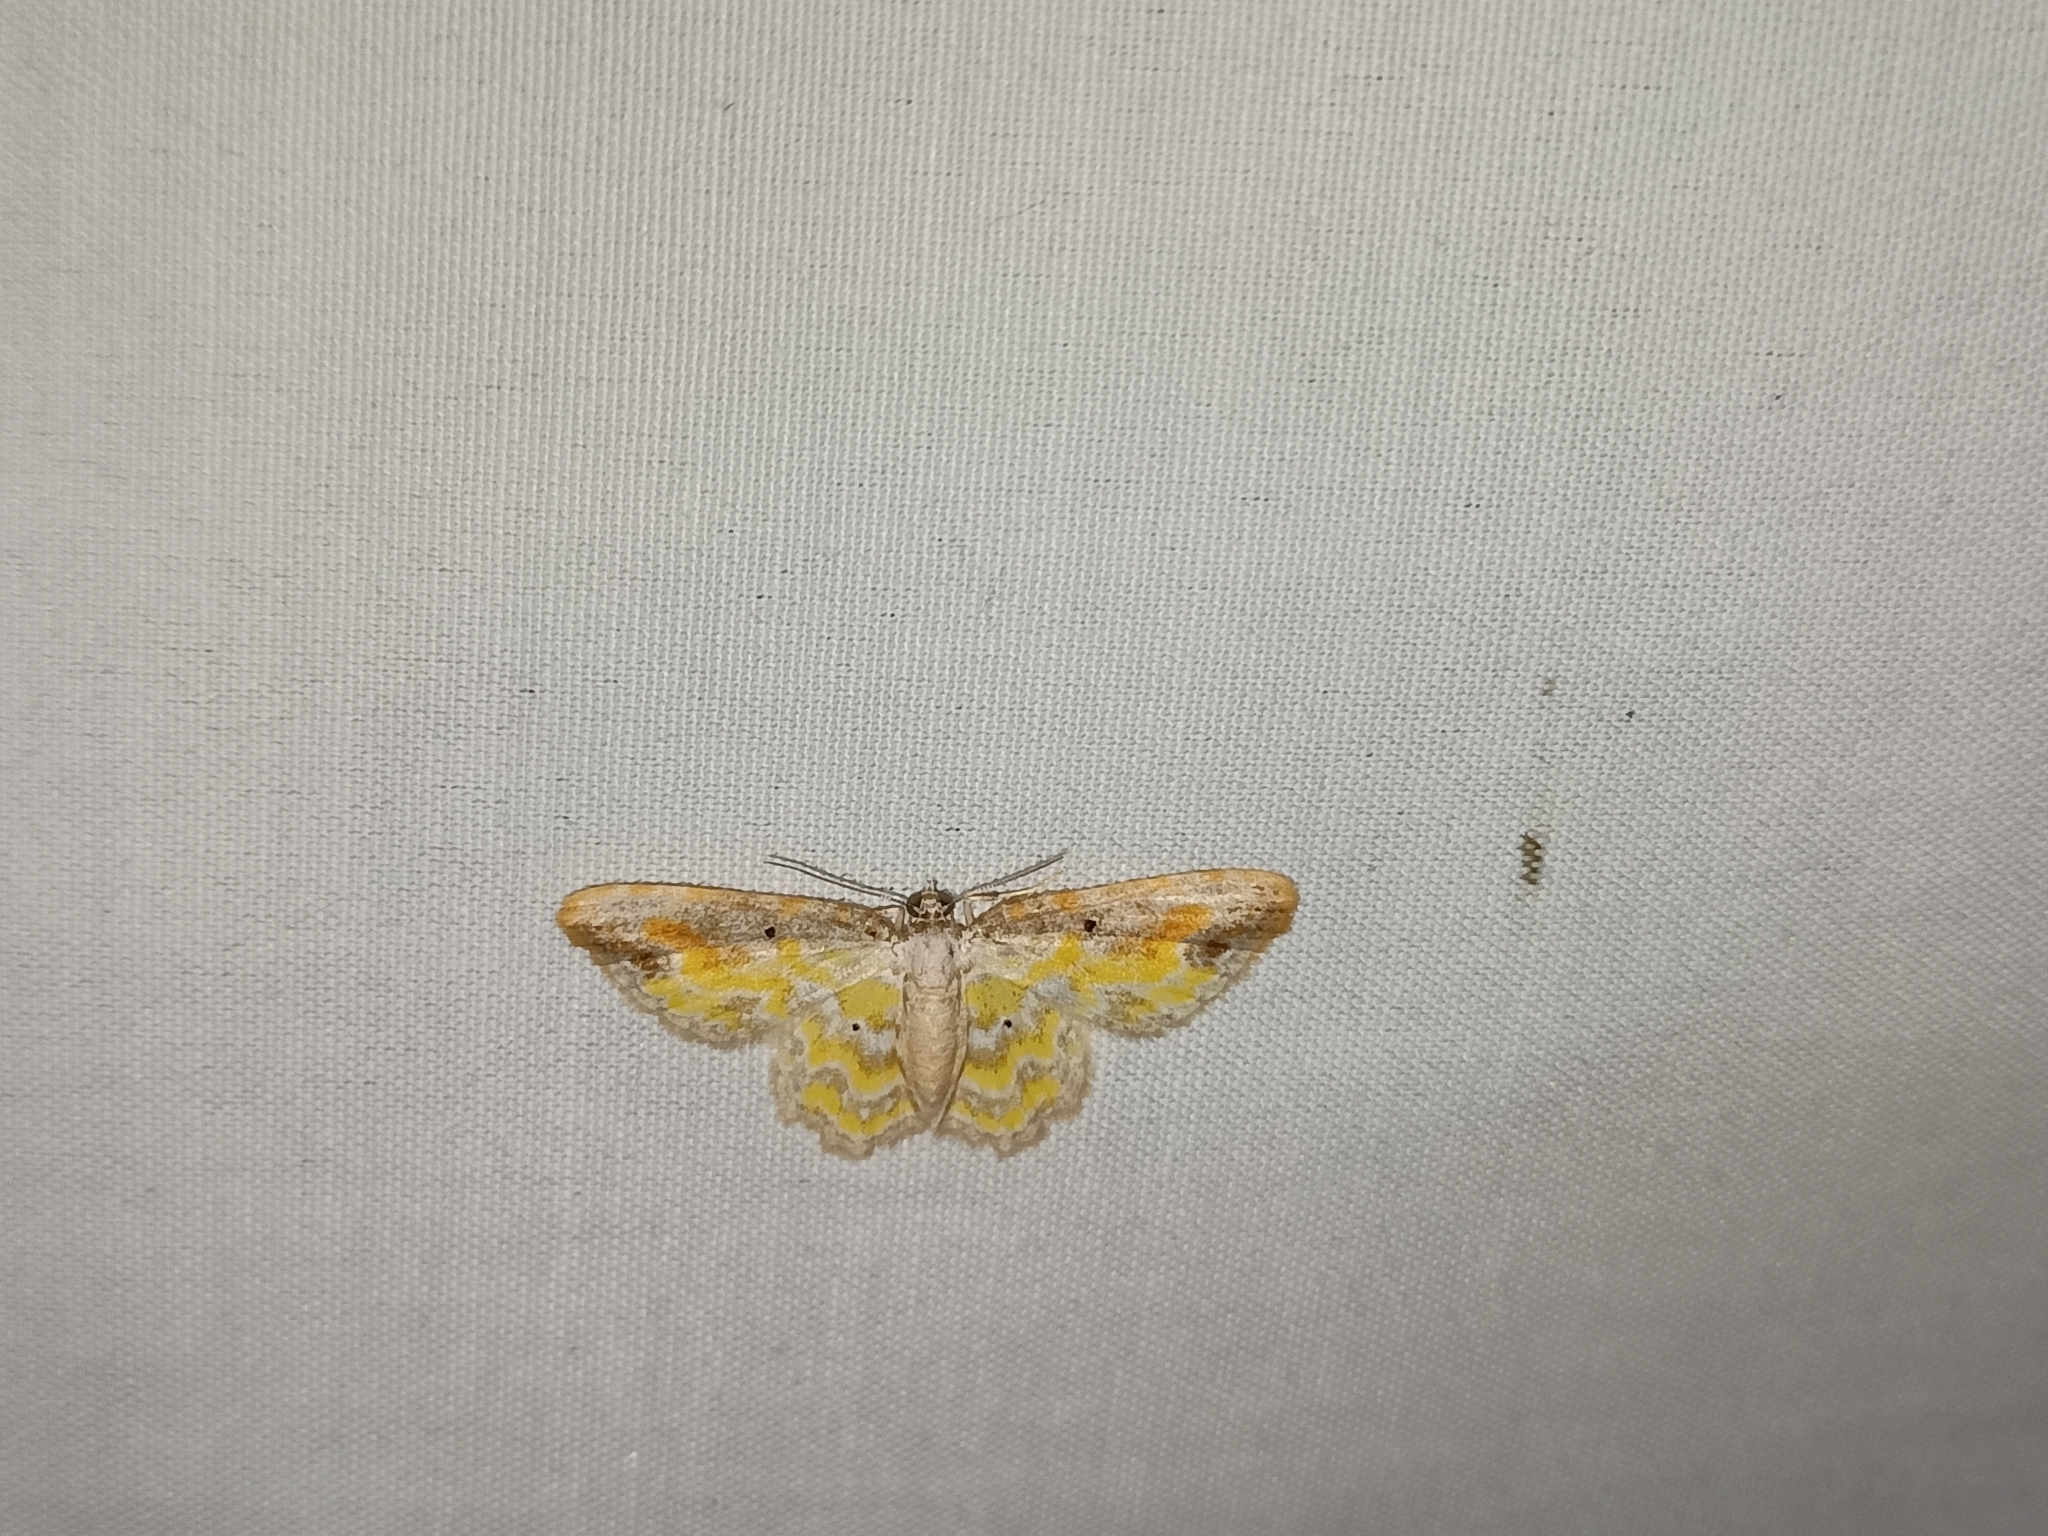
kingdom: Animalia
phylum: Arthropoda
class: Insecta
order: Lepidoptera
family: Geometridae
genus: Acolutha
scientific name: Acolutha pictaria
